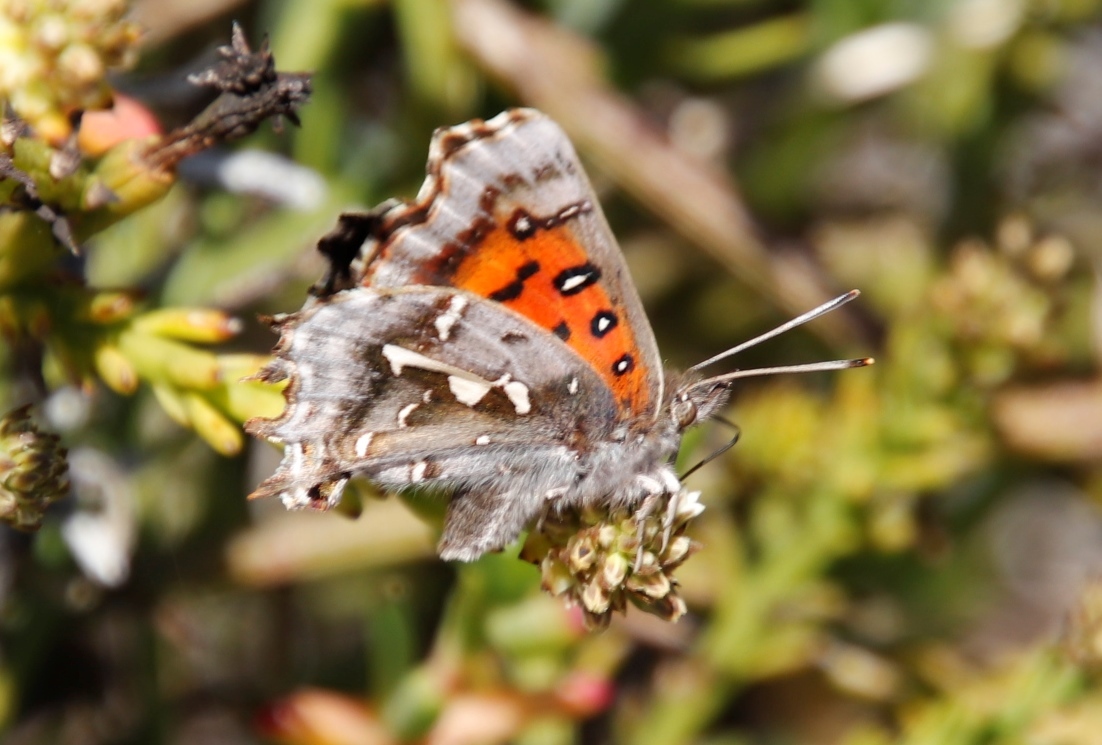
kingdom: Animalia
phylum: Arthropoda
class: Insecta
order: Lepidoptera
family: Lycaenidae
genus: Phasis
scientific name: Phasis thero
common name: Silver arrowhead
